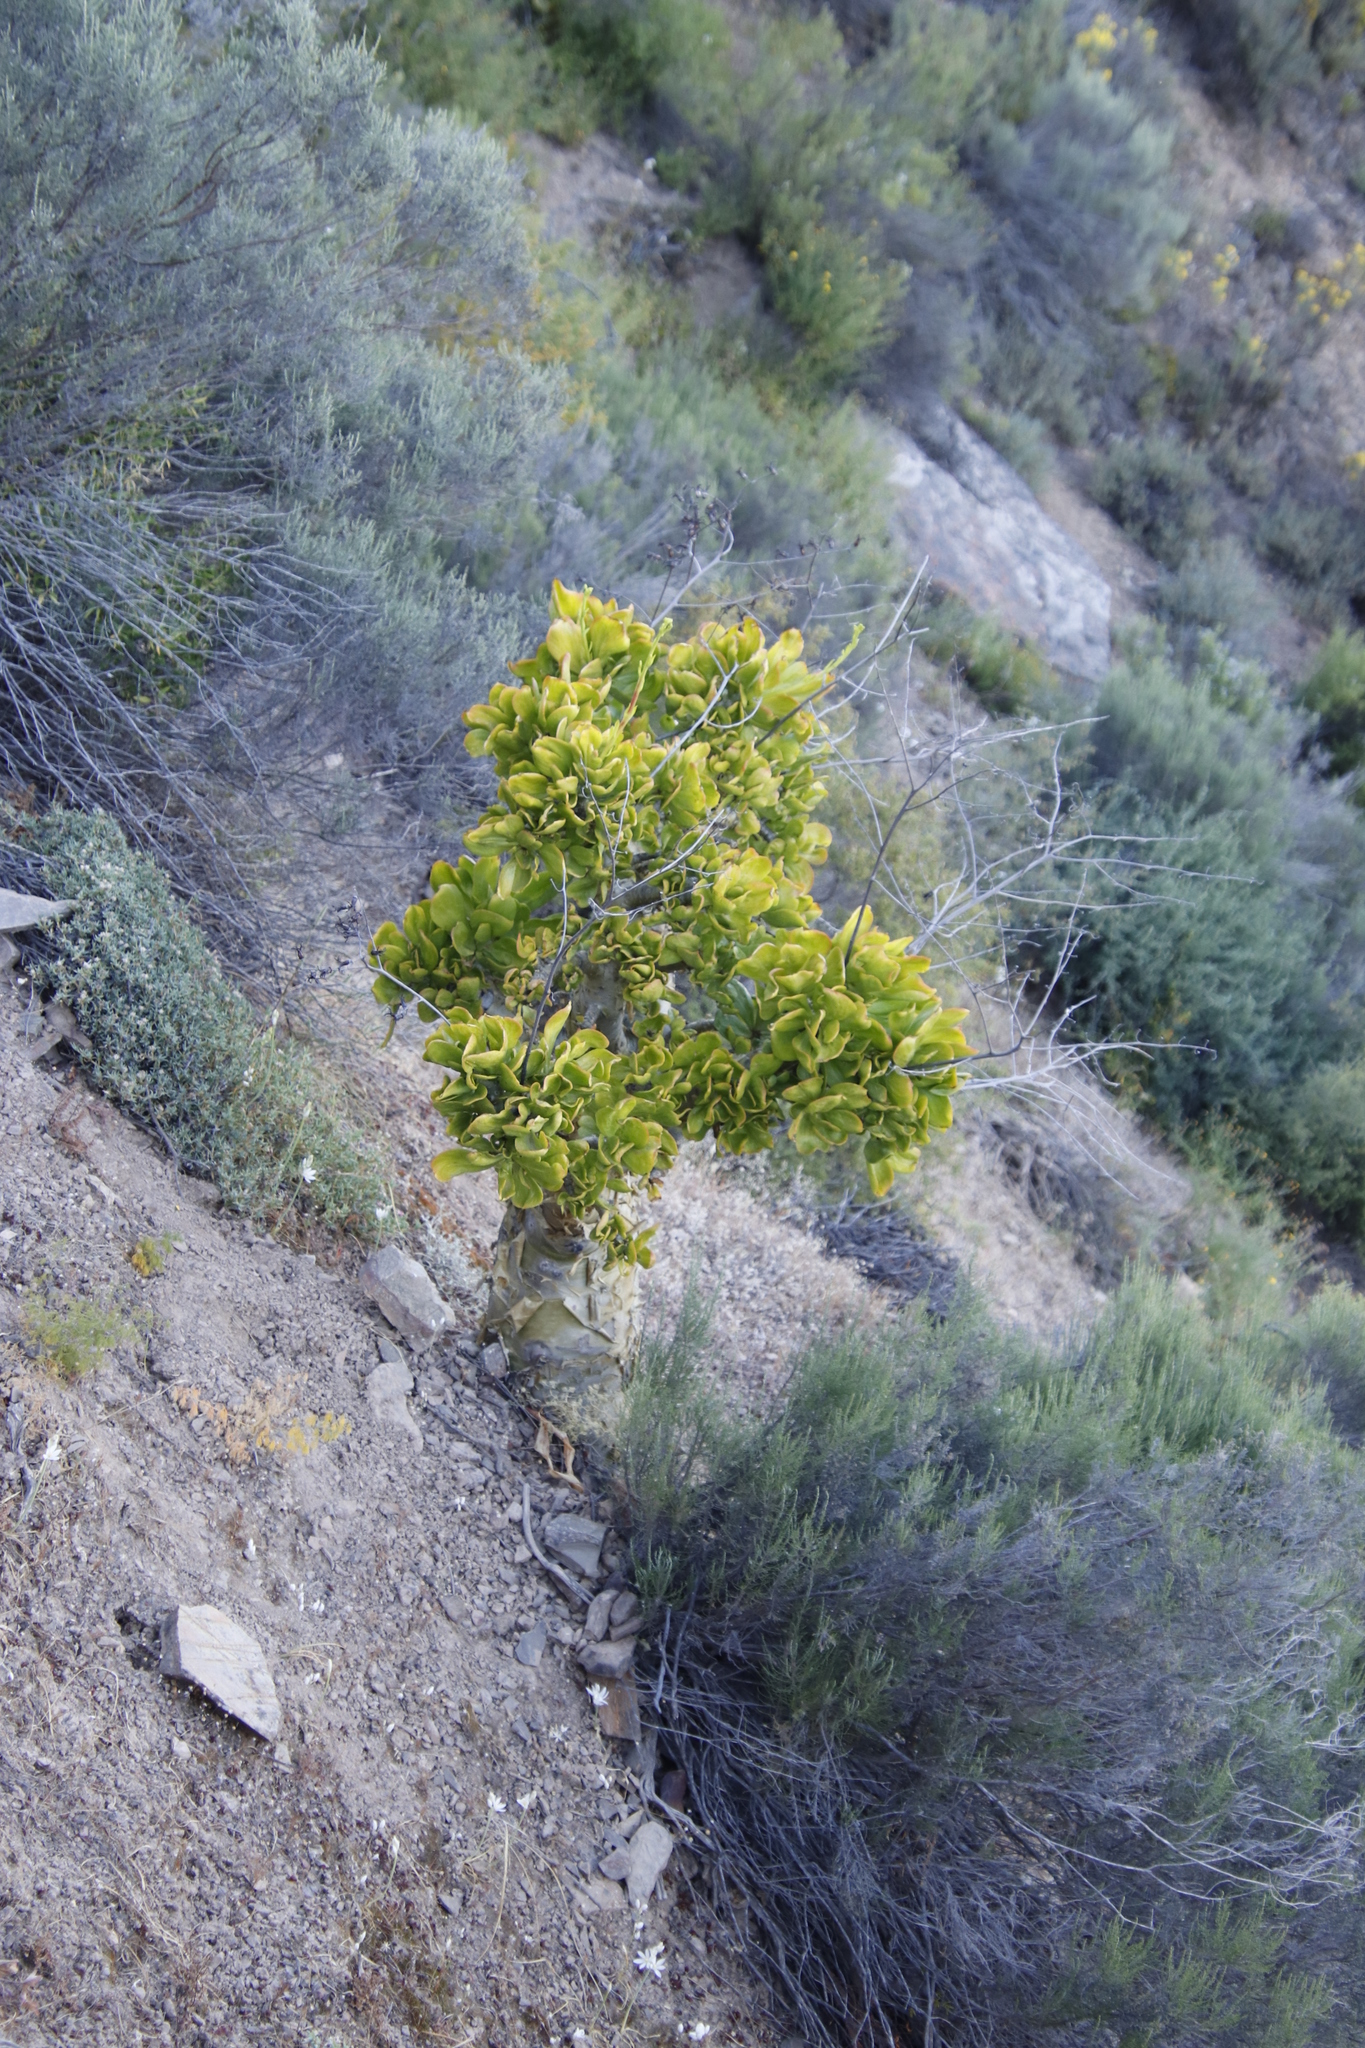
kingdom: Plantae
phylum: Tracheophyta
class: Magnoliopsida
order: Saxifragales
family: Crassulaceae
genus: Tylecodon
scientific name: Tylecodon paniculatus
